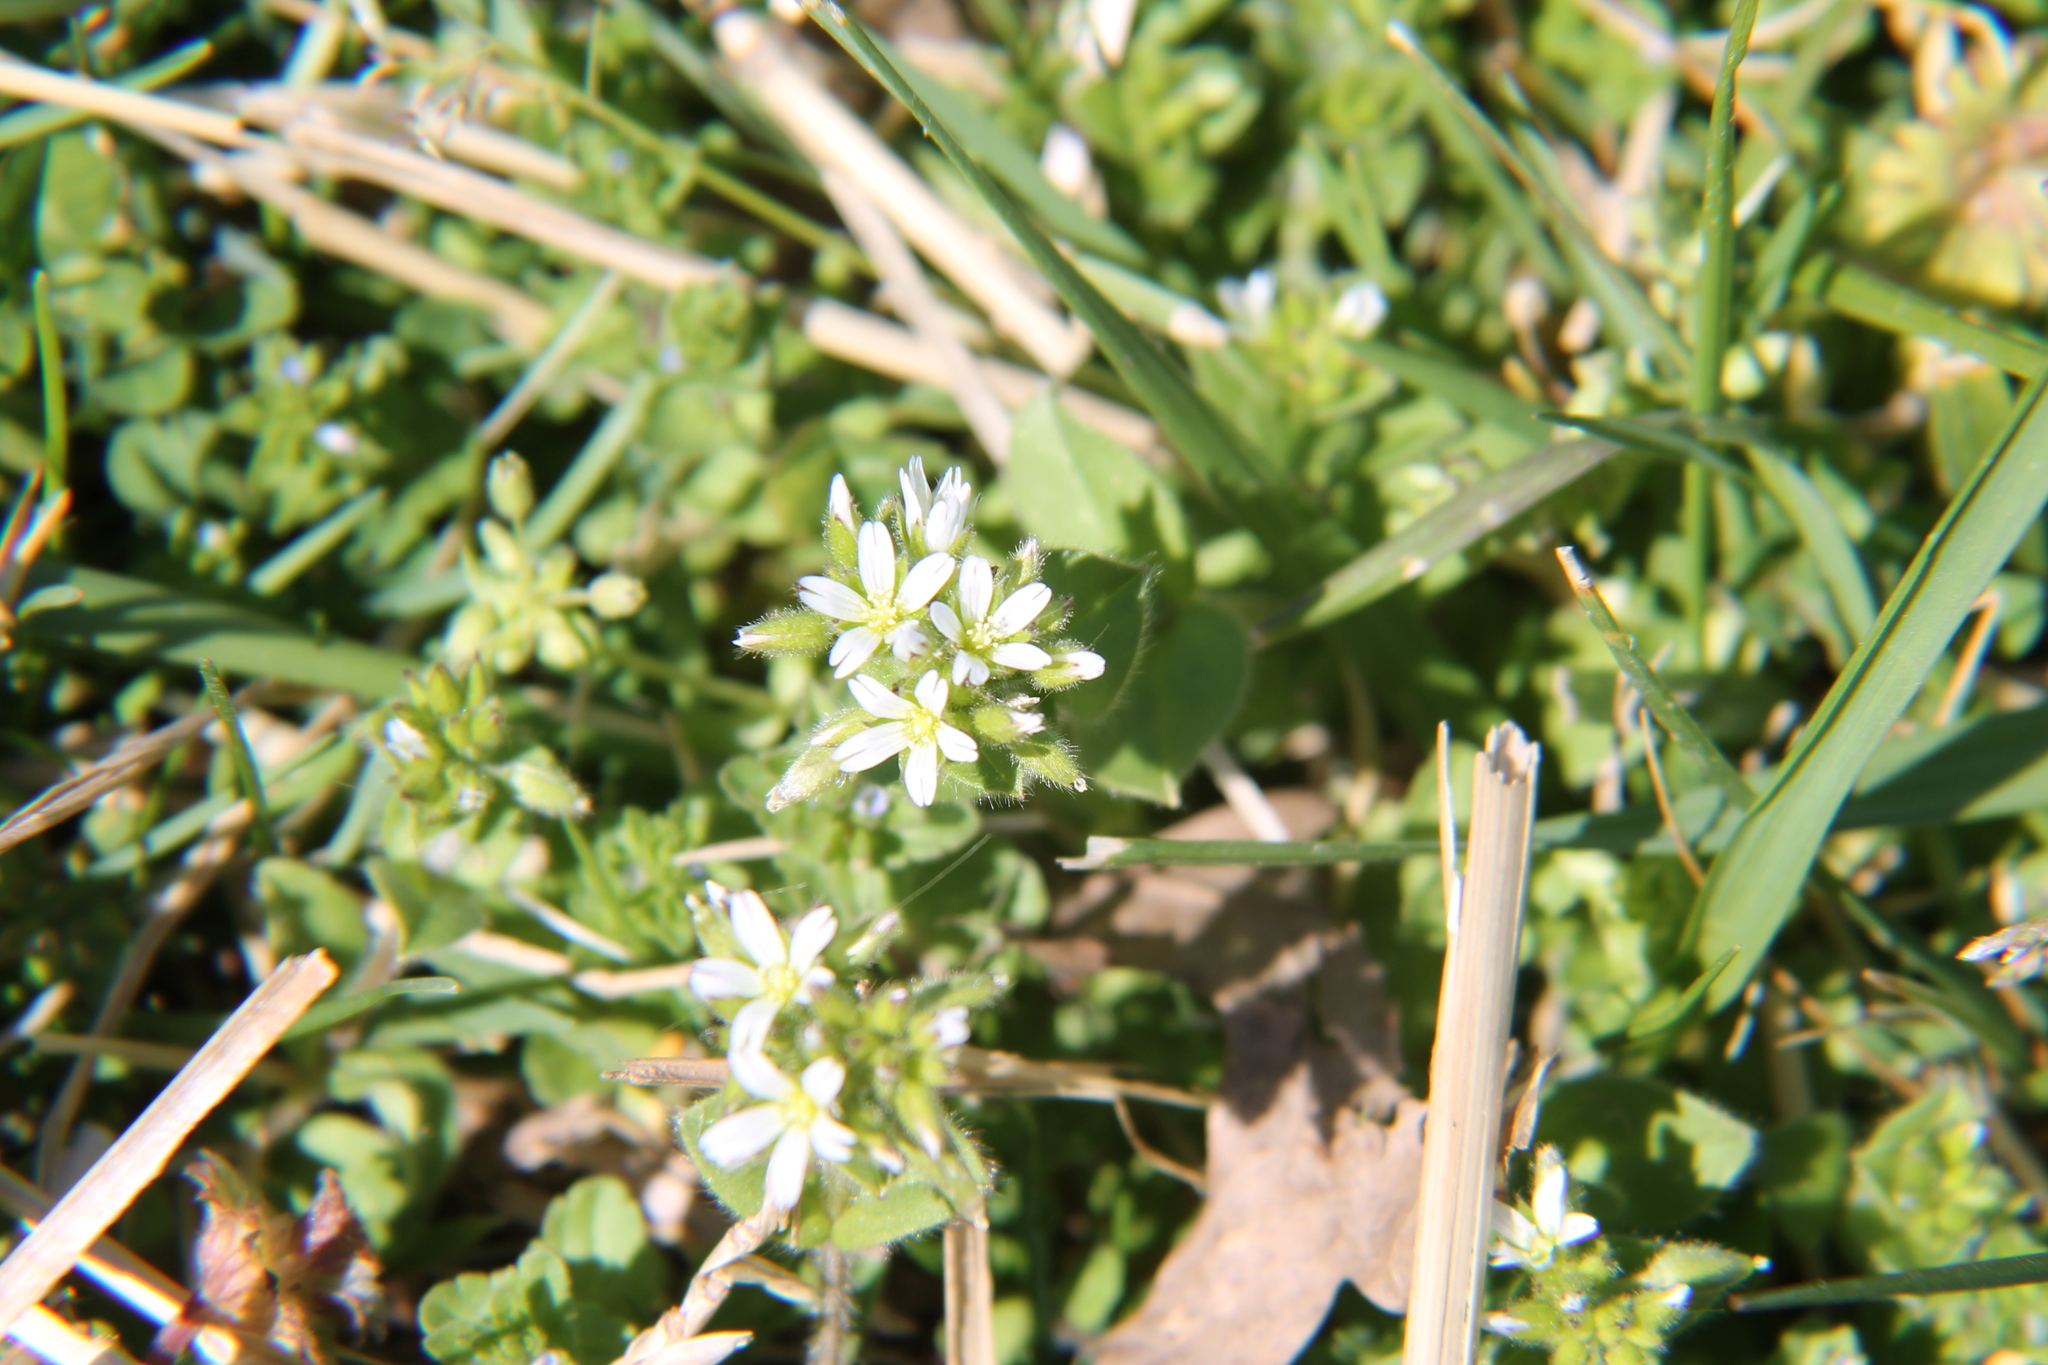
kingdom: Plantae
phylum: Tracheophyta
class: Magnoliopsida
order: Caryophyllales
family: Caryophyllaceae
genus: Cerastium
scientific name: Cerastium glomeratum
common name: Sticky chickweed
